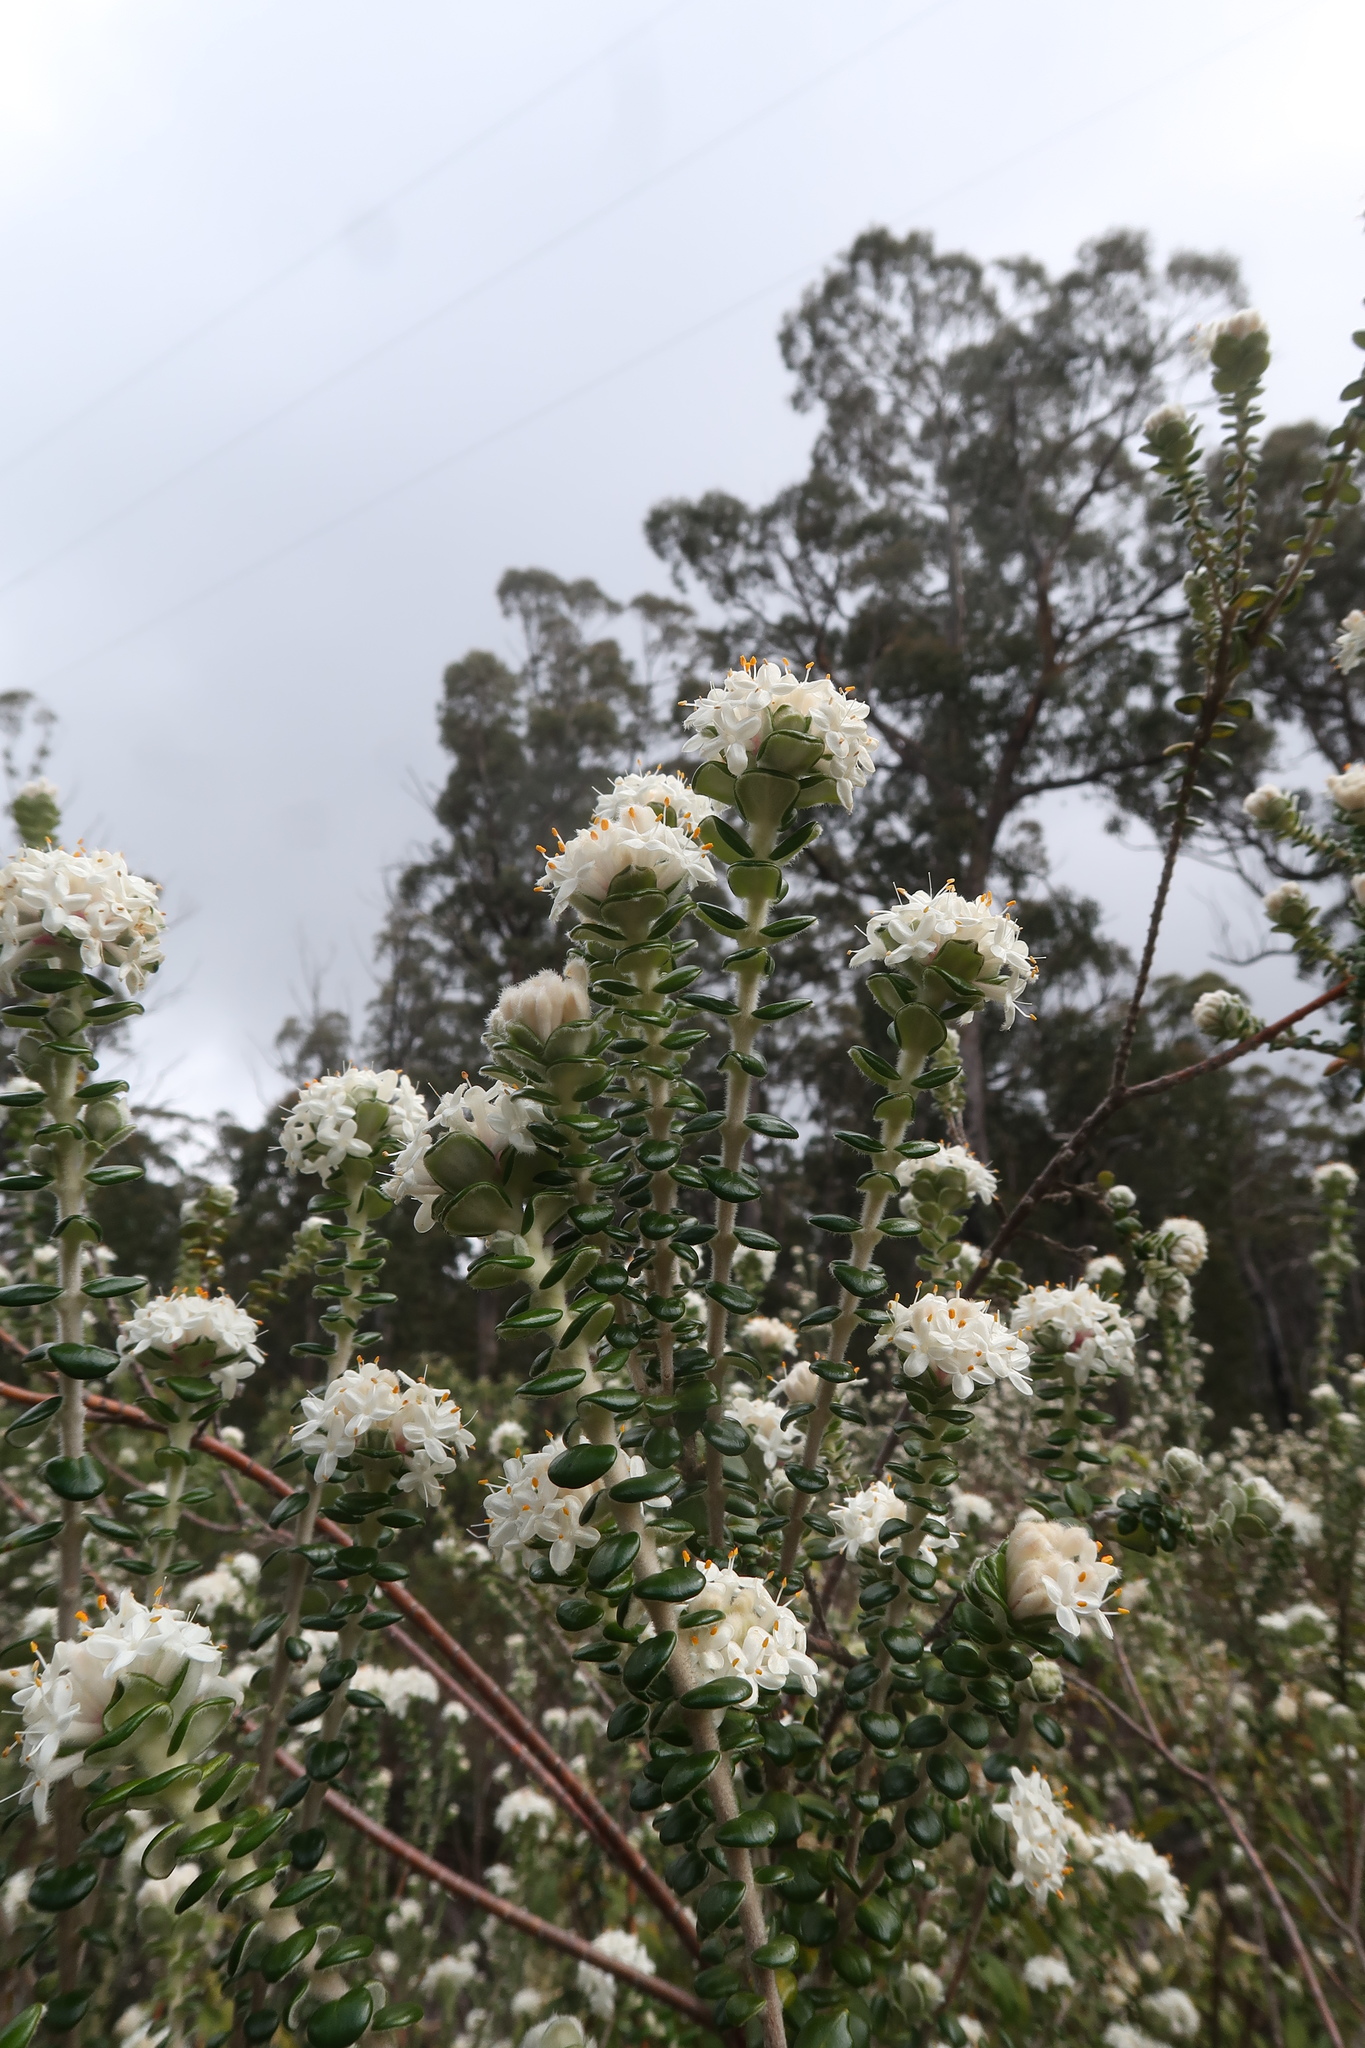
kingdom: Plantae
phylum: Tracheophyta
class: Magnoliopsida
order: Malvales
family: Thymelaeaceae
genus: Pimelea
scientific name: Pimelea nivea
